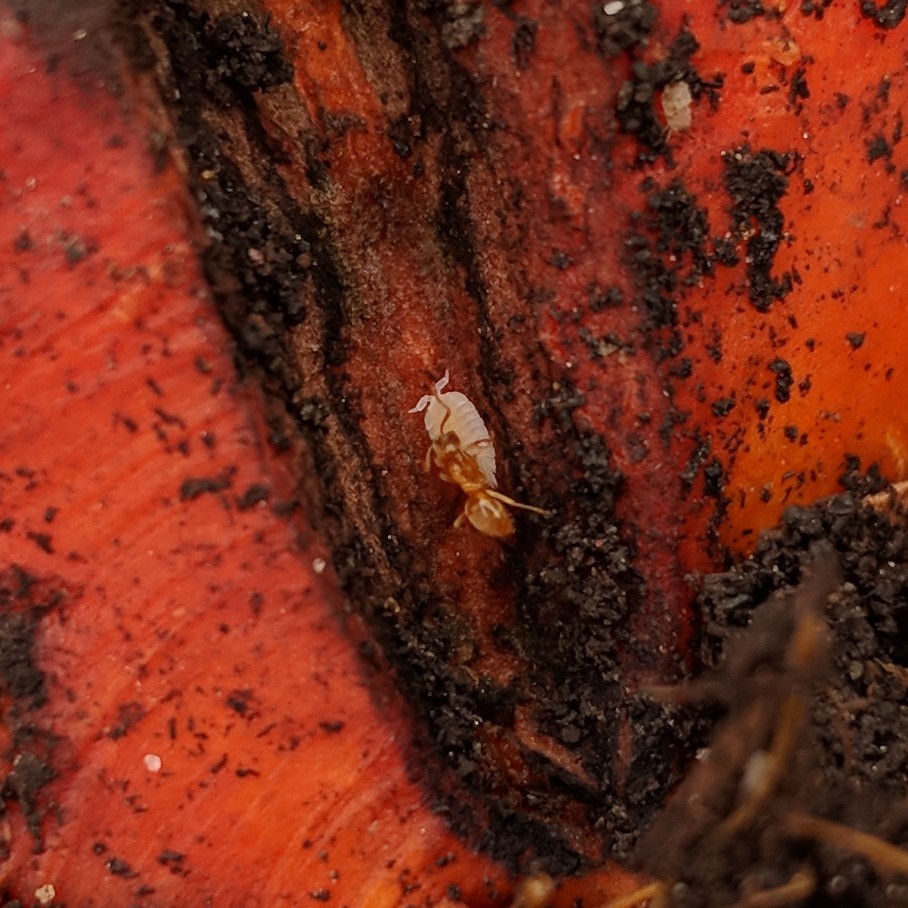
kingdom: Animalia
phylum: Arthropoda
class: Malacostraca
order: Isopoda
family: Platyarthridae
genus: Platyarthrus
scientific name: Platyarthrus hoffmannseggii
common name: Ant woodlouse
